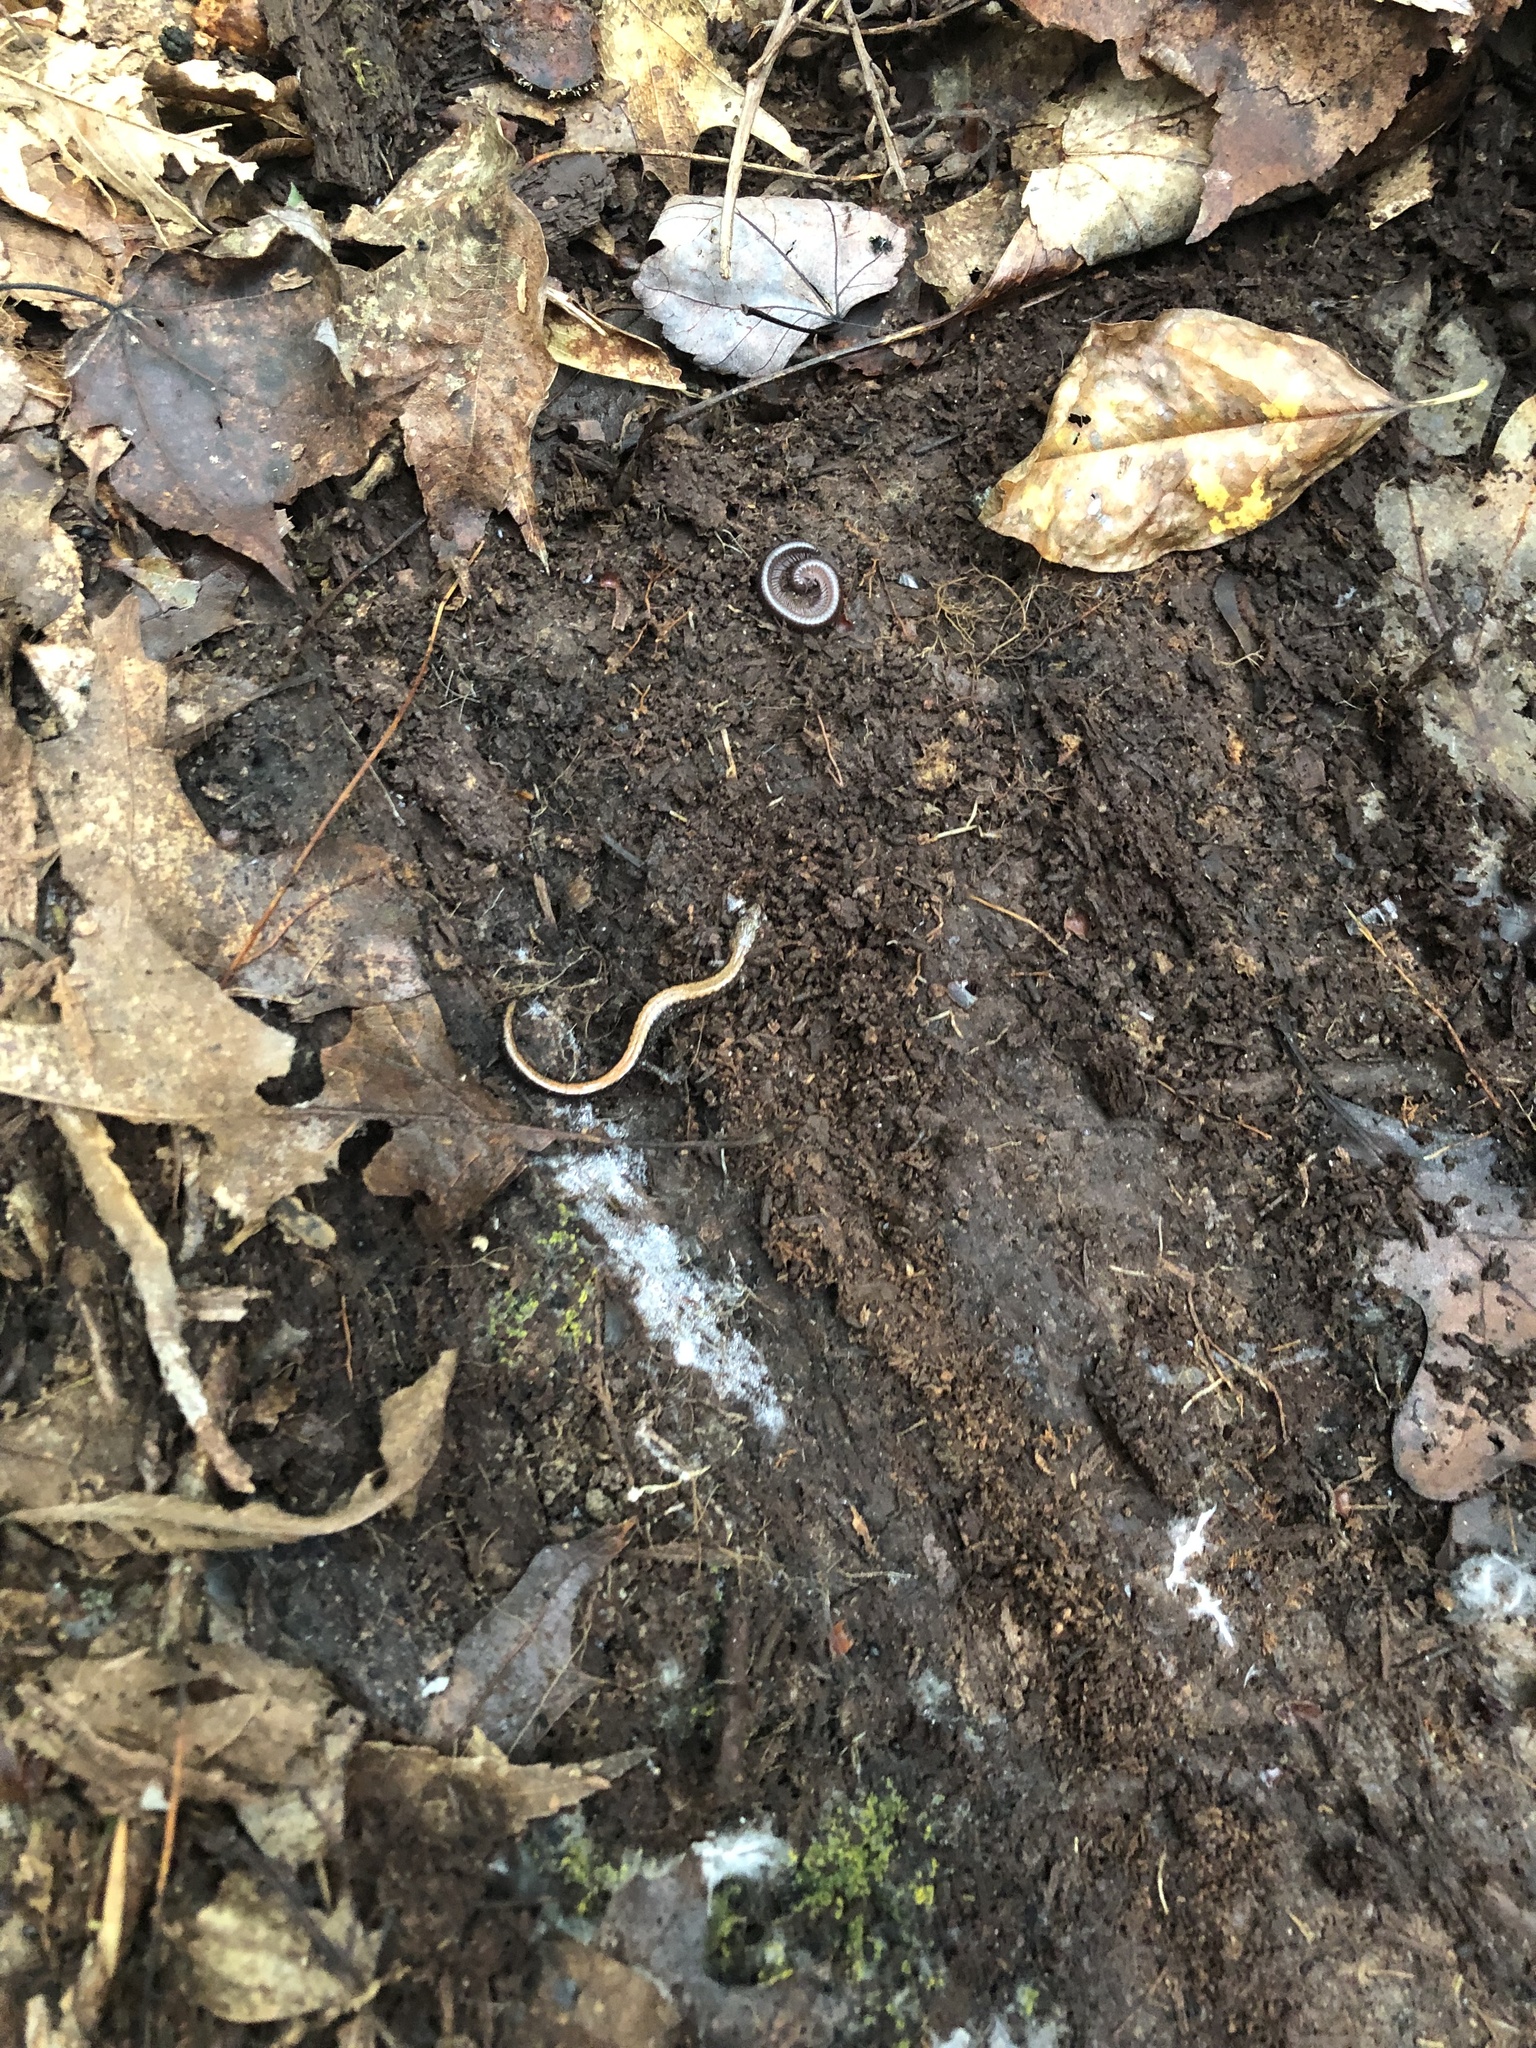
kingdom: Animalia
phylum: Chordata
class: Amphibia
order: Caudata
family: Plethodontidae
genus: Plethodon
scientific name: Plethodon cinereus
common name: Redback salamander
